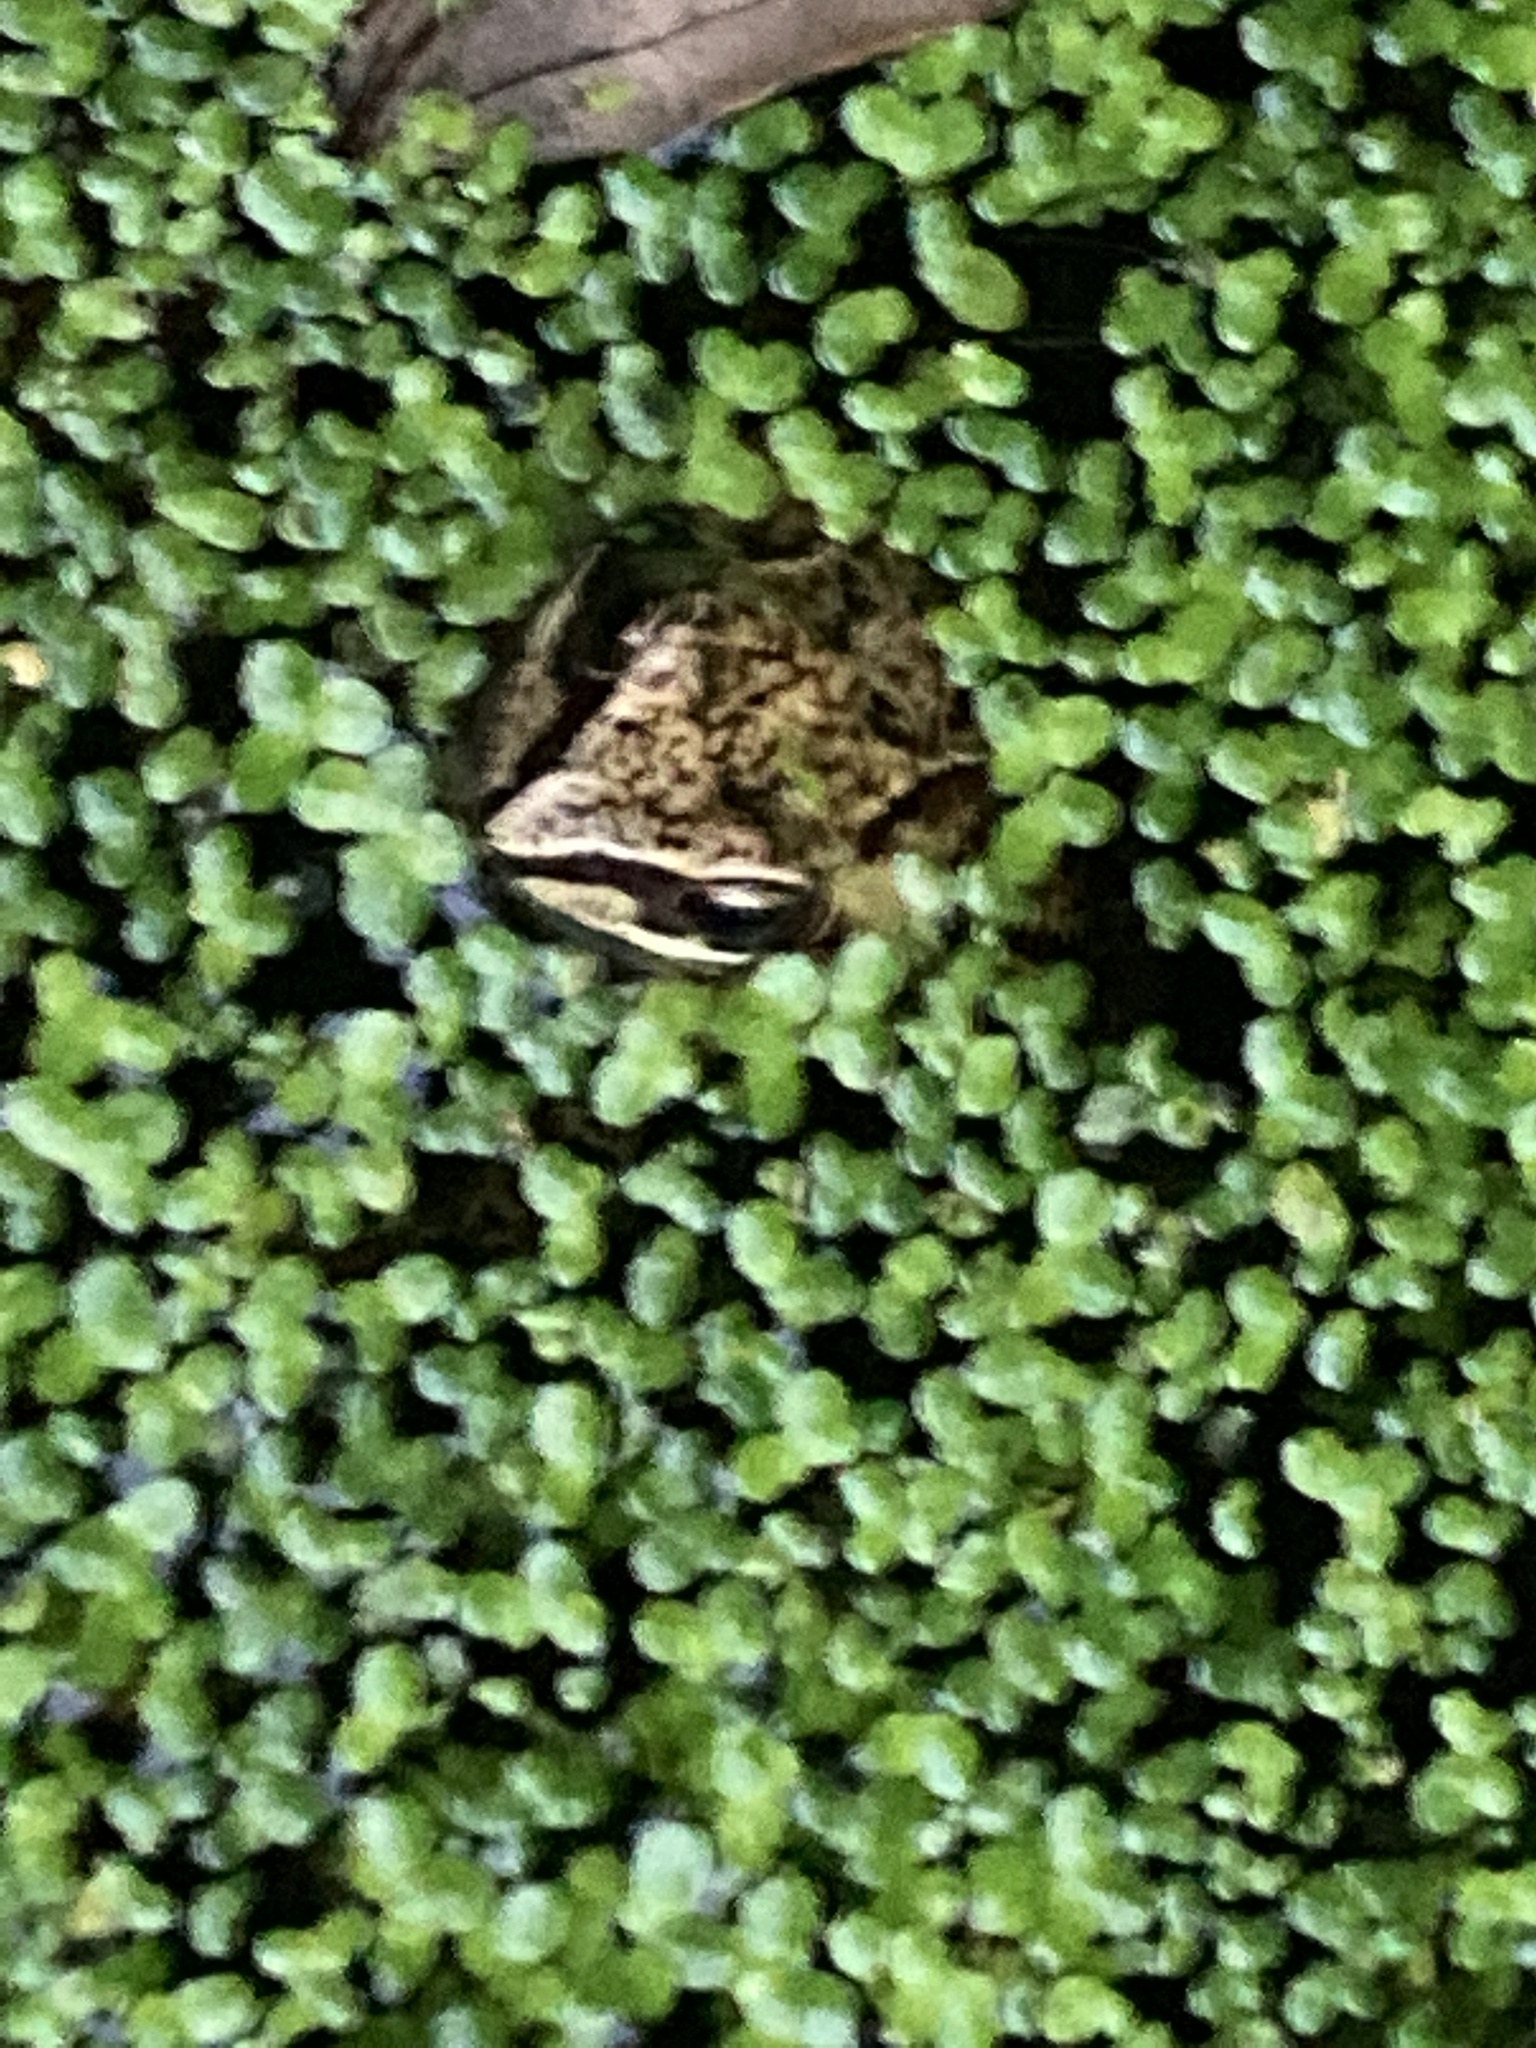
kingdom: Animalia
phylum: Chordata
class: Amphibia
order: Anura
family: Ranidae
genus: Rana
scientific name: Rana temporaria
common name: Common frog
